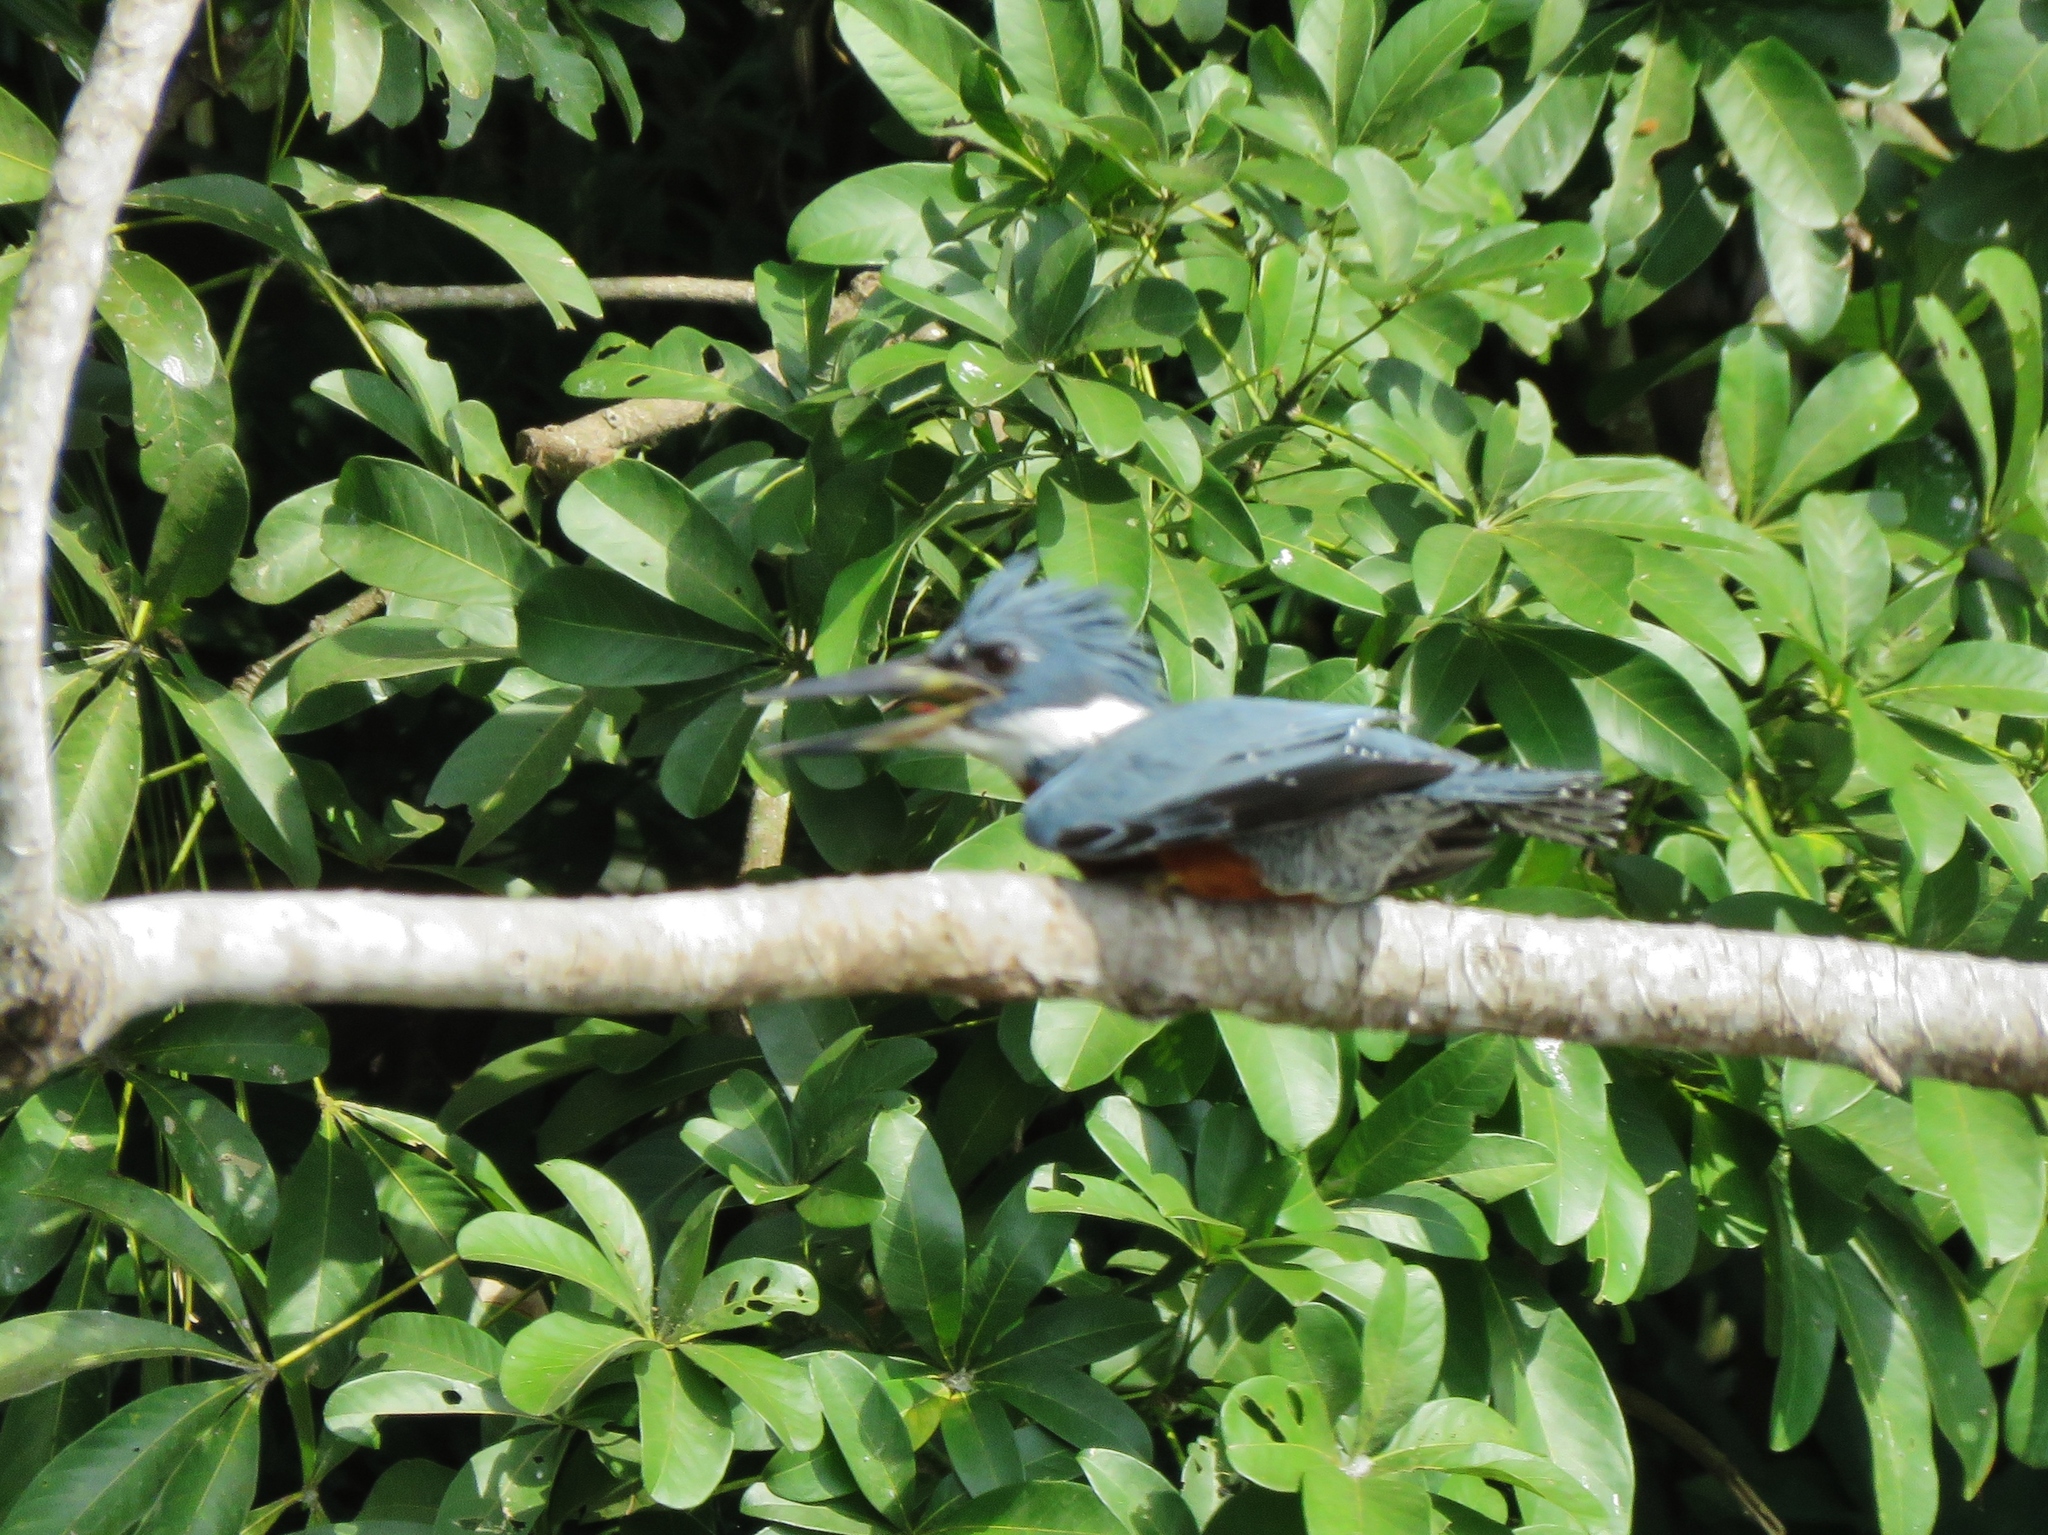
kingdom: Animalia
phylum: Chordata
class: Aves
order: Coraciiformes
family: Alcedinidae
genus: Megaceryle
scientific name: Megaceryle torquata
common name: Ringed kingfisher
